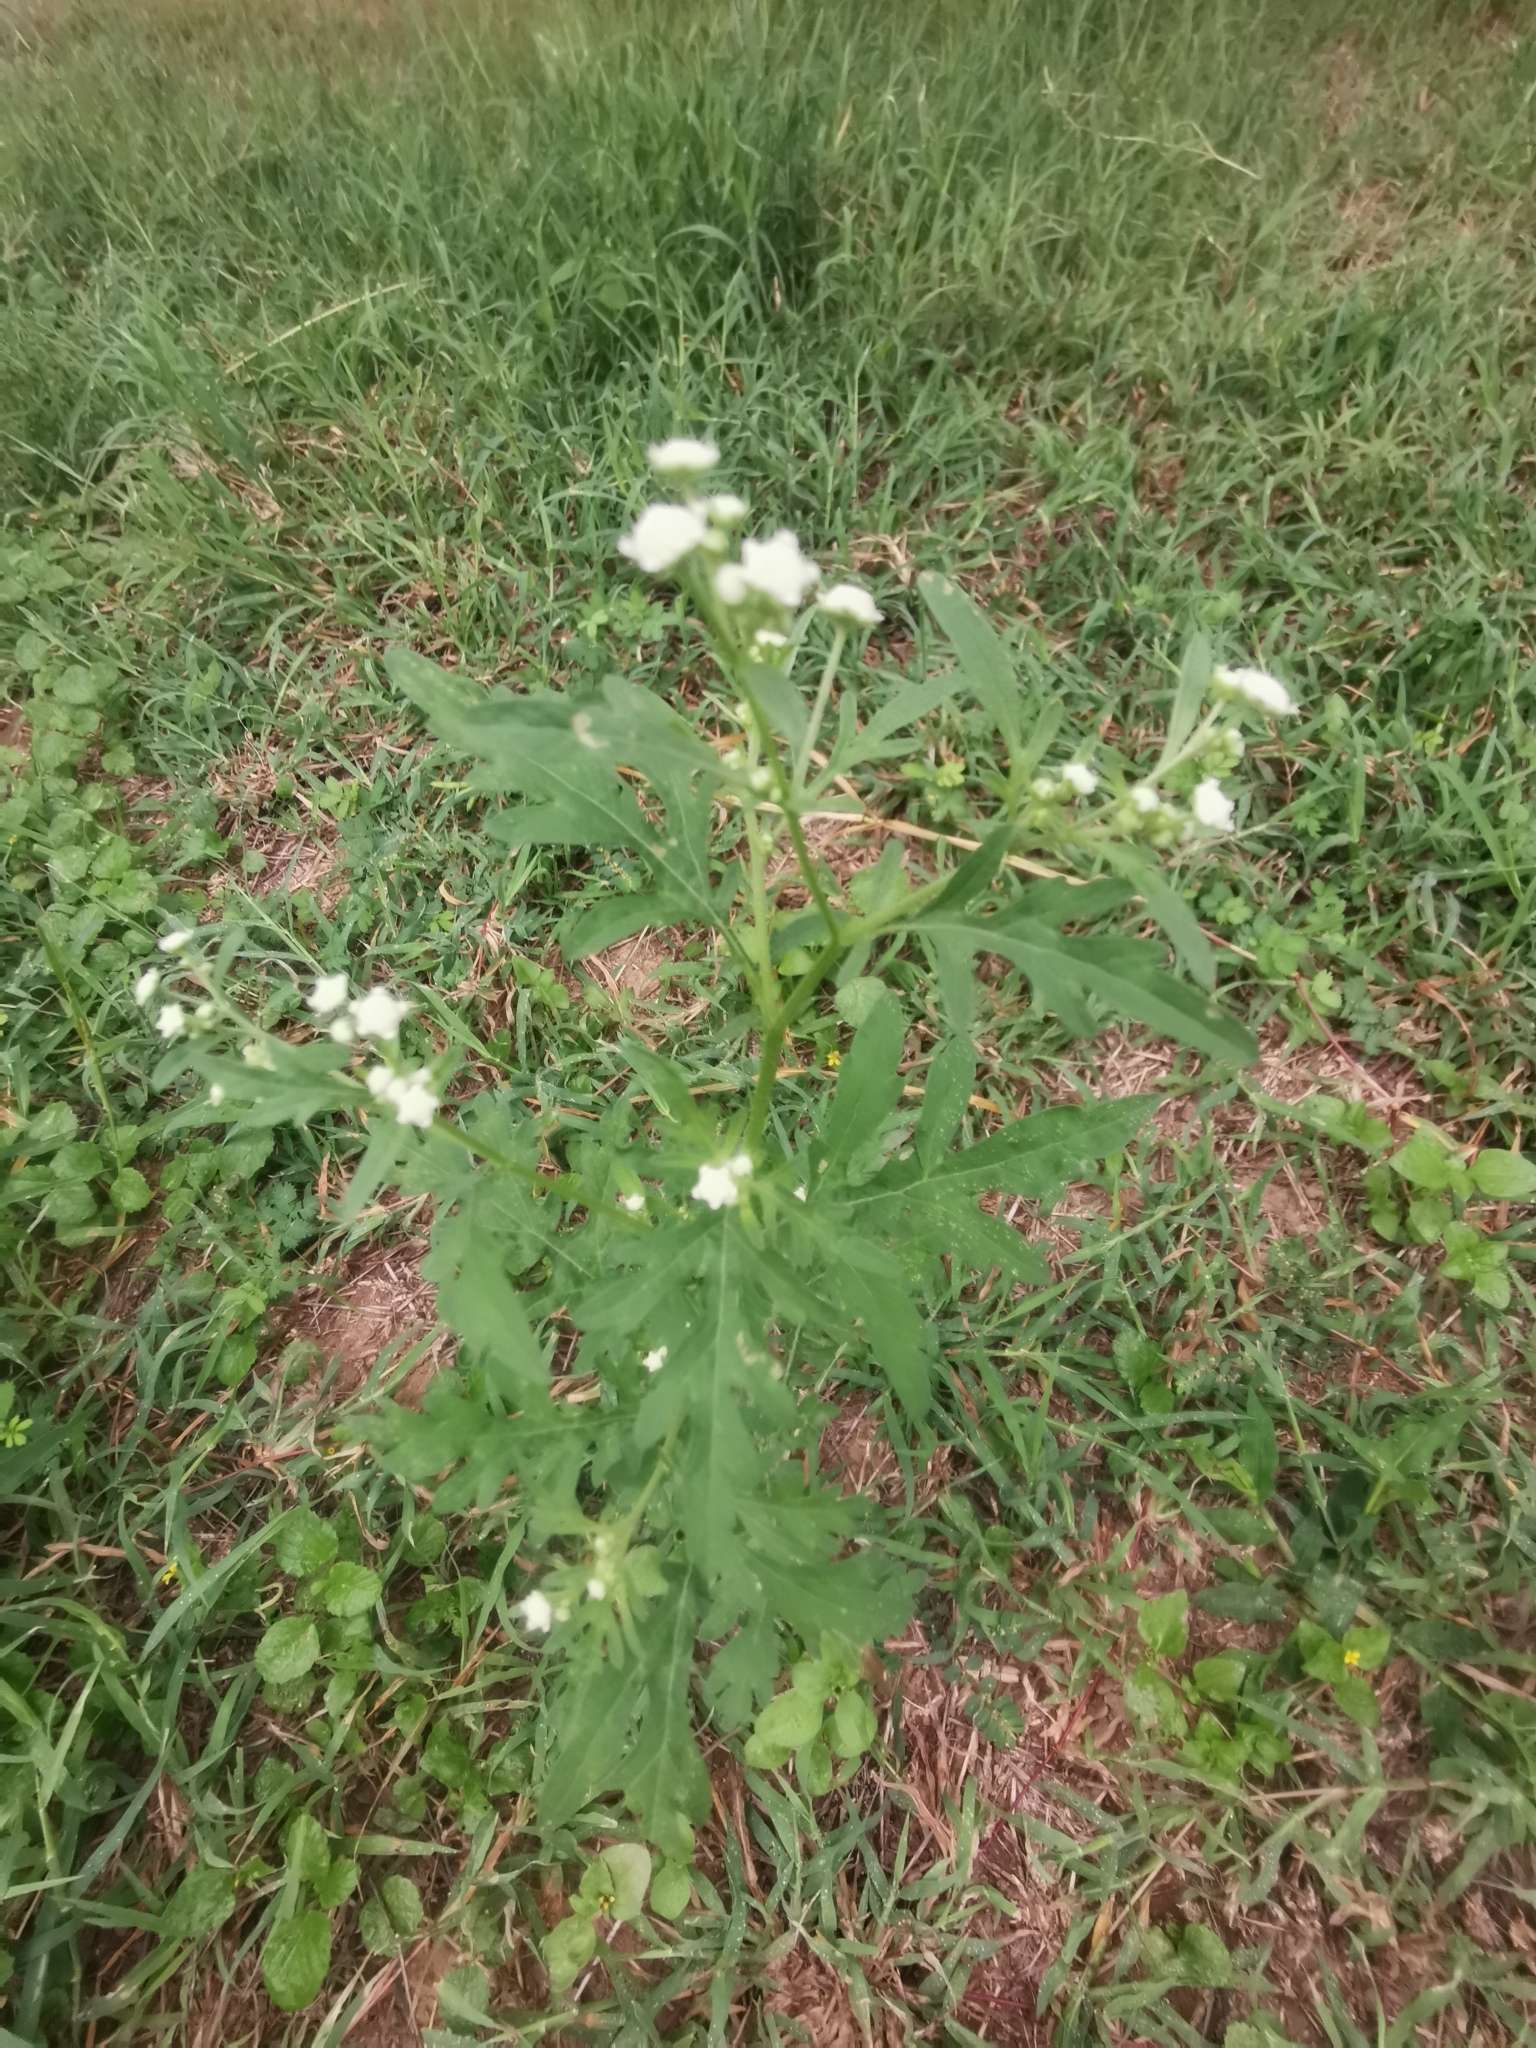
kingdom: Plantae
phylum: Tracheophyta
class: Magnoliopsida
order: Asterales
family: Asteraceae
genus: Parthenium
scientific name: Parthenium hysterophorus
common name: Santa maria feverfew
